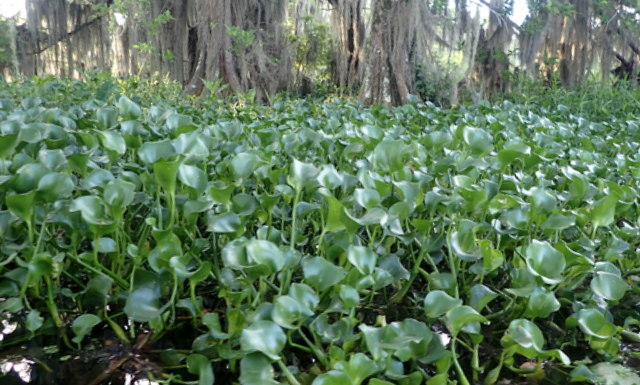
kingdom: Plantae
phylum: Tracheophyta
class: Liliopsida
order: Commelinales
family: Pontederiaceae
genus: Pontederia
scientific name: Pontederia crassipes
